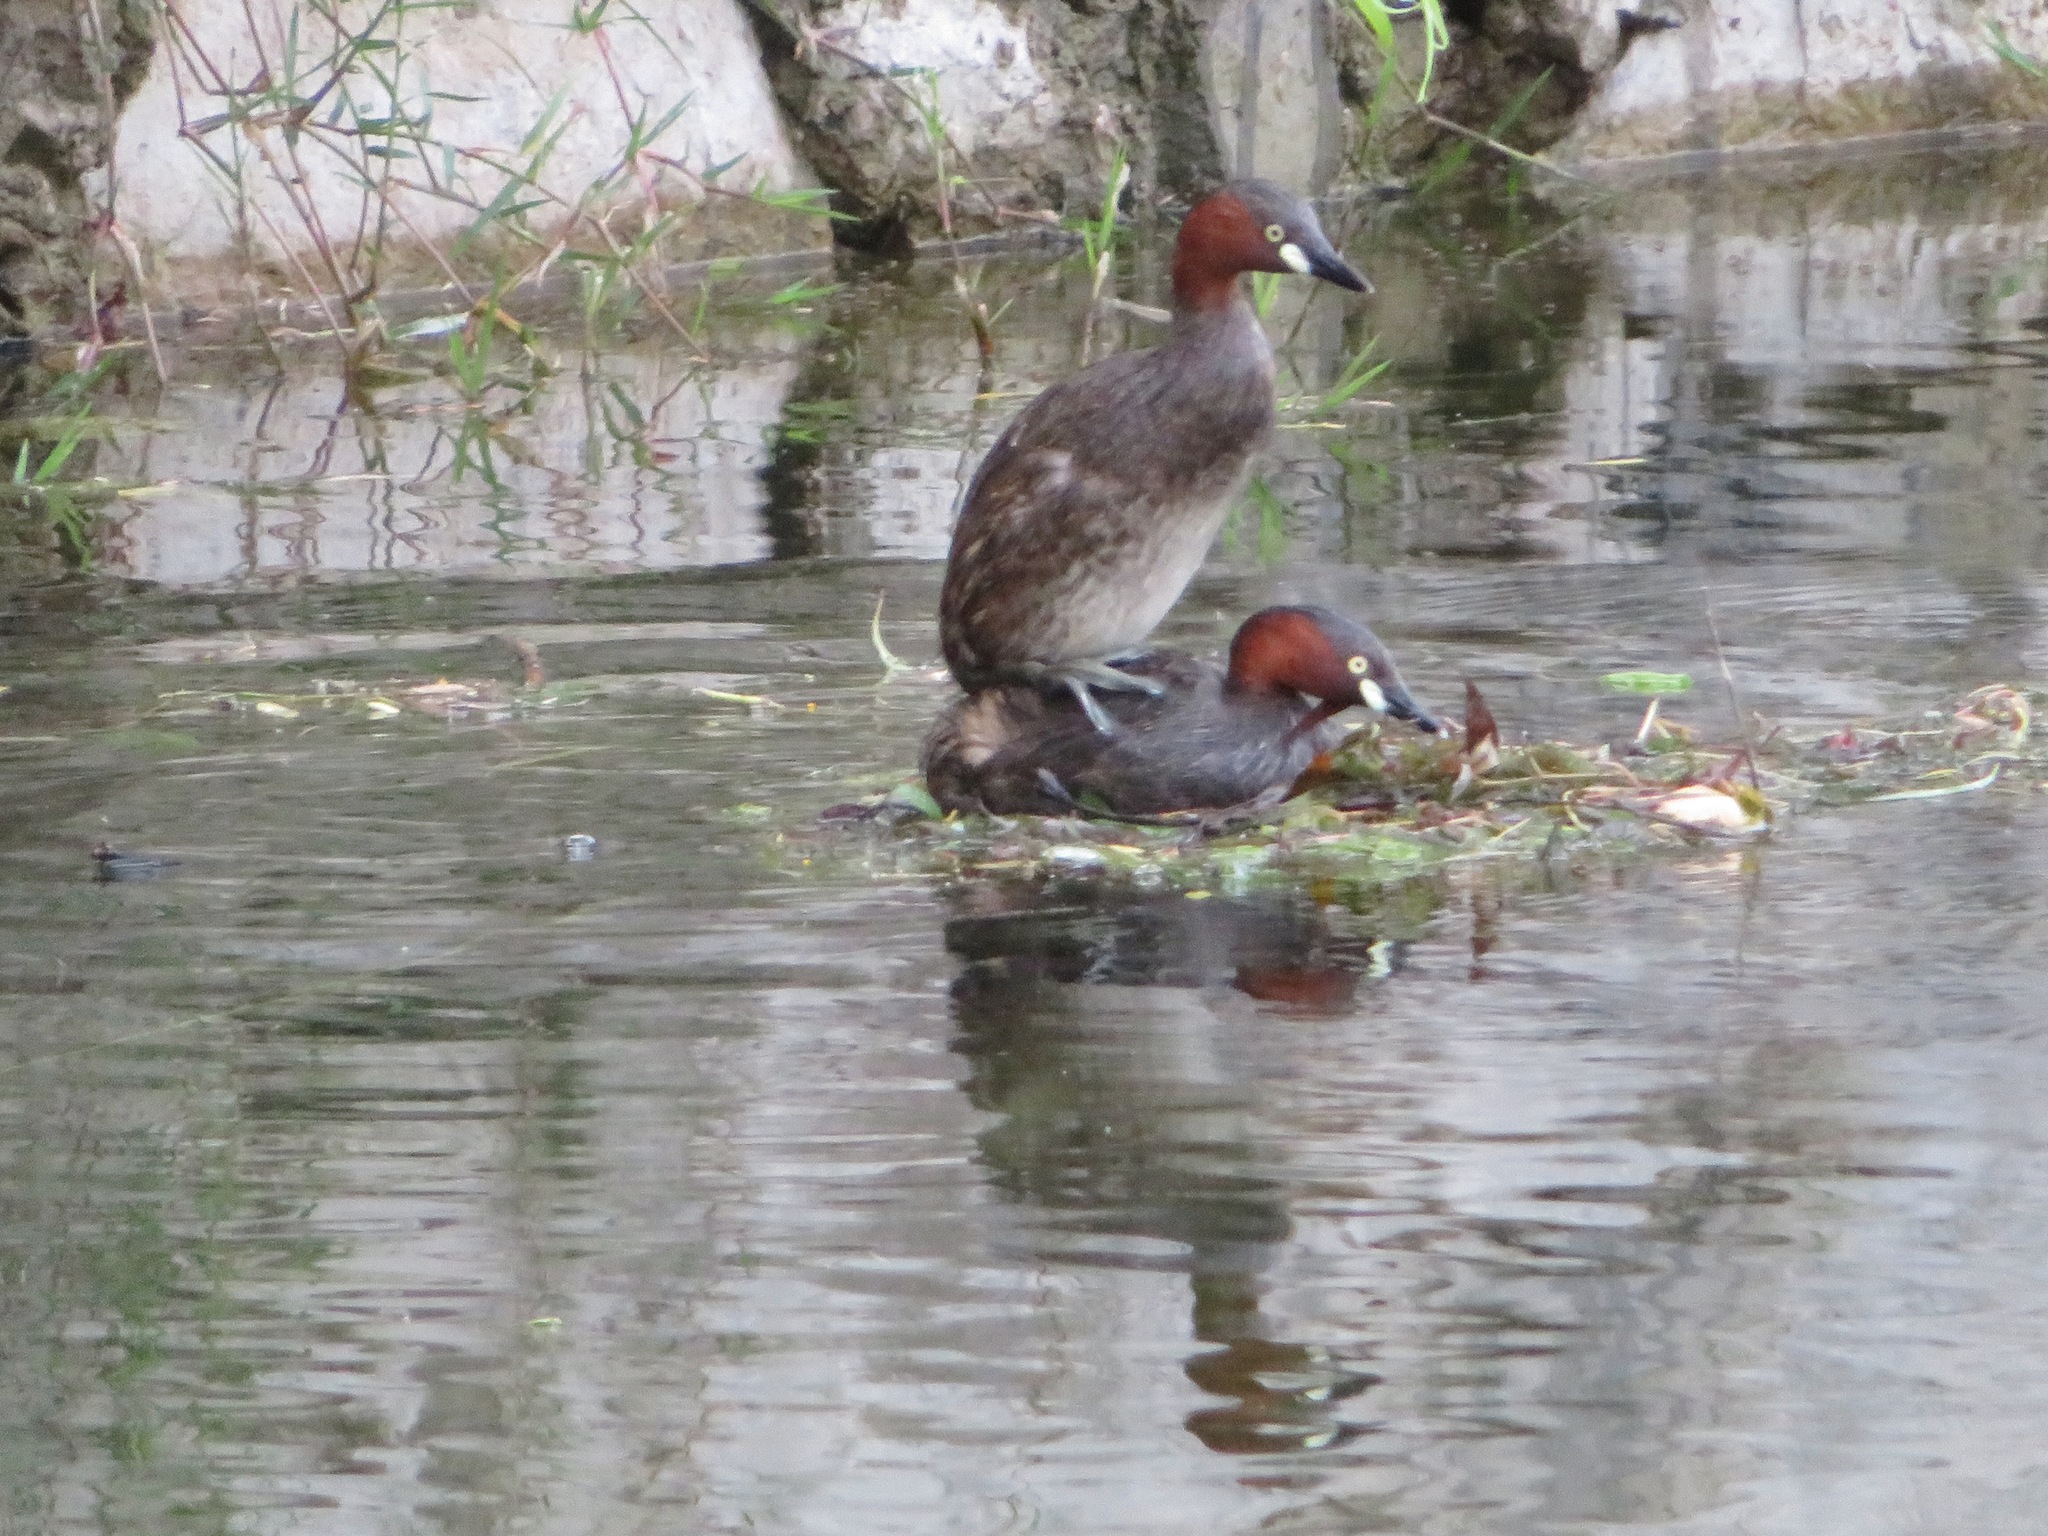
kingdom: Animalia
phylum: Chordata
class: Aves
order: Podicipediformes
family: Podicipedidae
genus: Tachybaptus
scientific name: Tachybaptus ruficollis
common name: Little grebe
